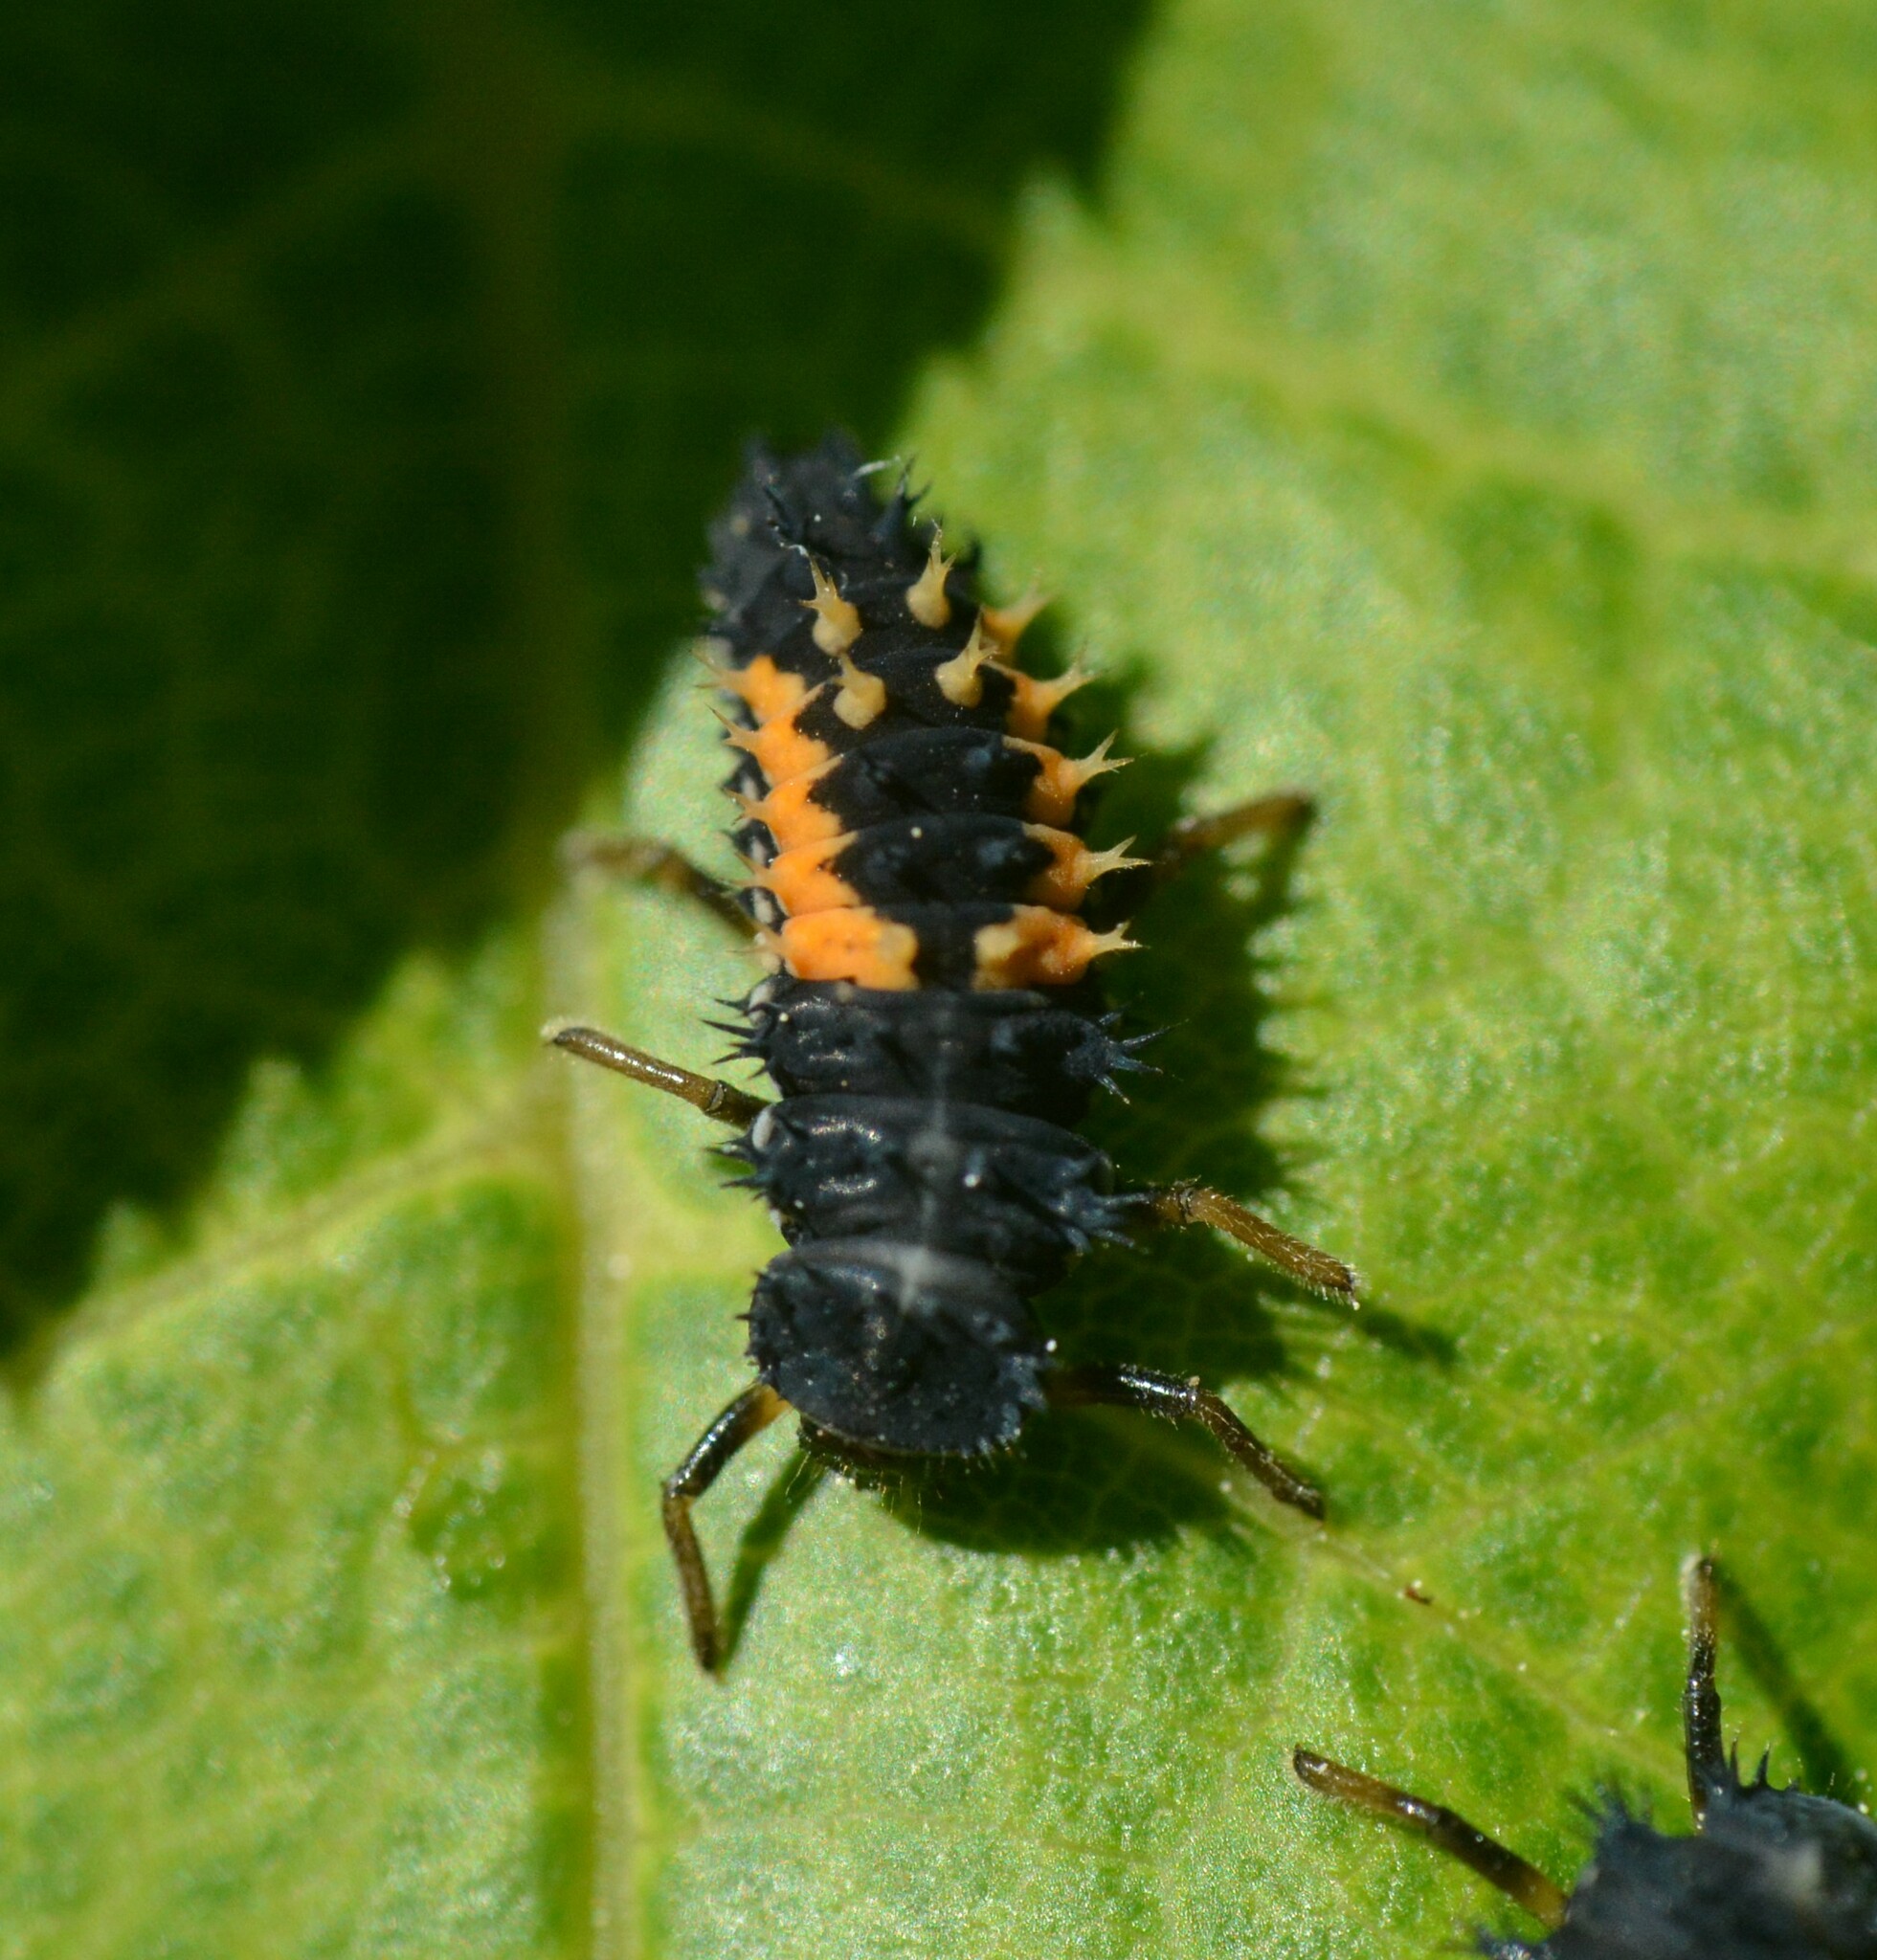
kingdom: Animalia
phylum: Arthropoda
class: Insecta
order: Coleoptera
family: Coccinellidae
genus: Harmonia
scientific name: Harmonia axyridis
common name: Harlequin ladybird
